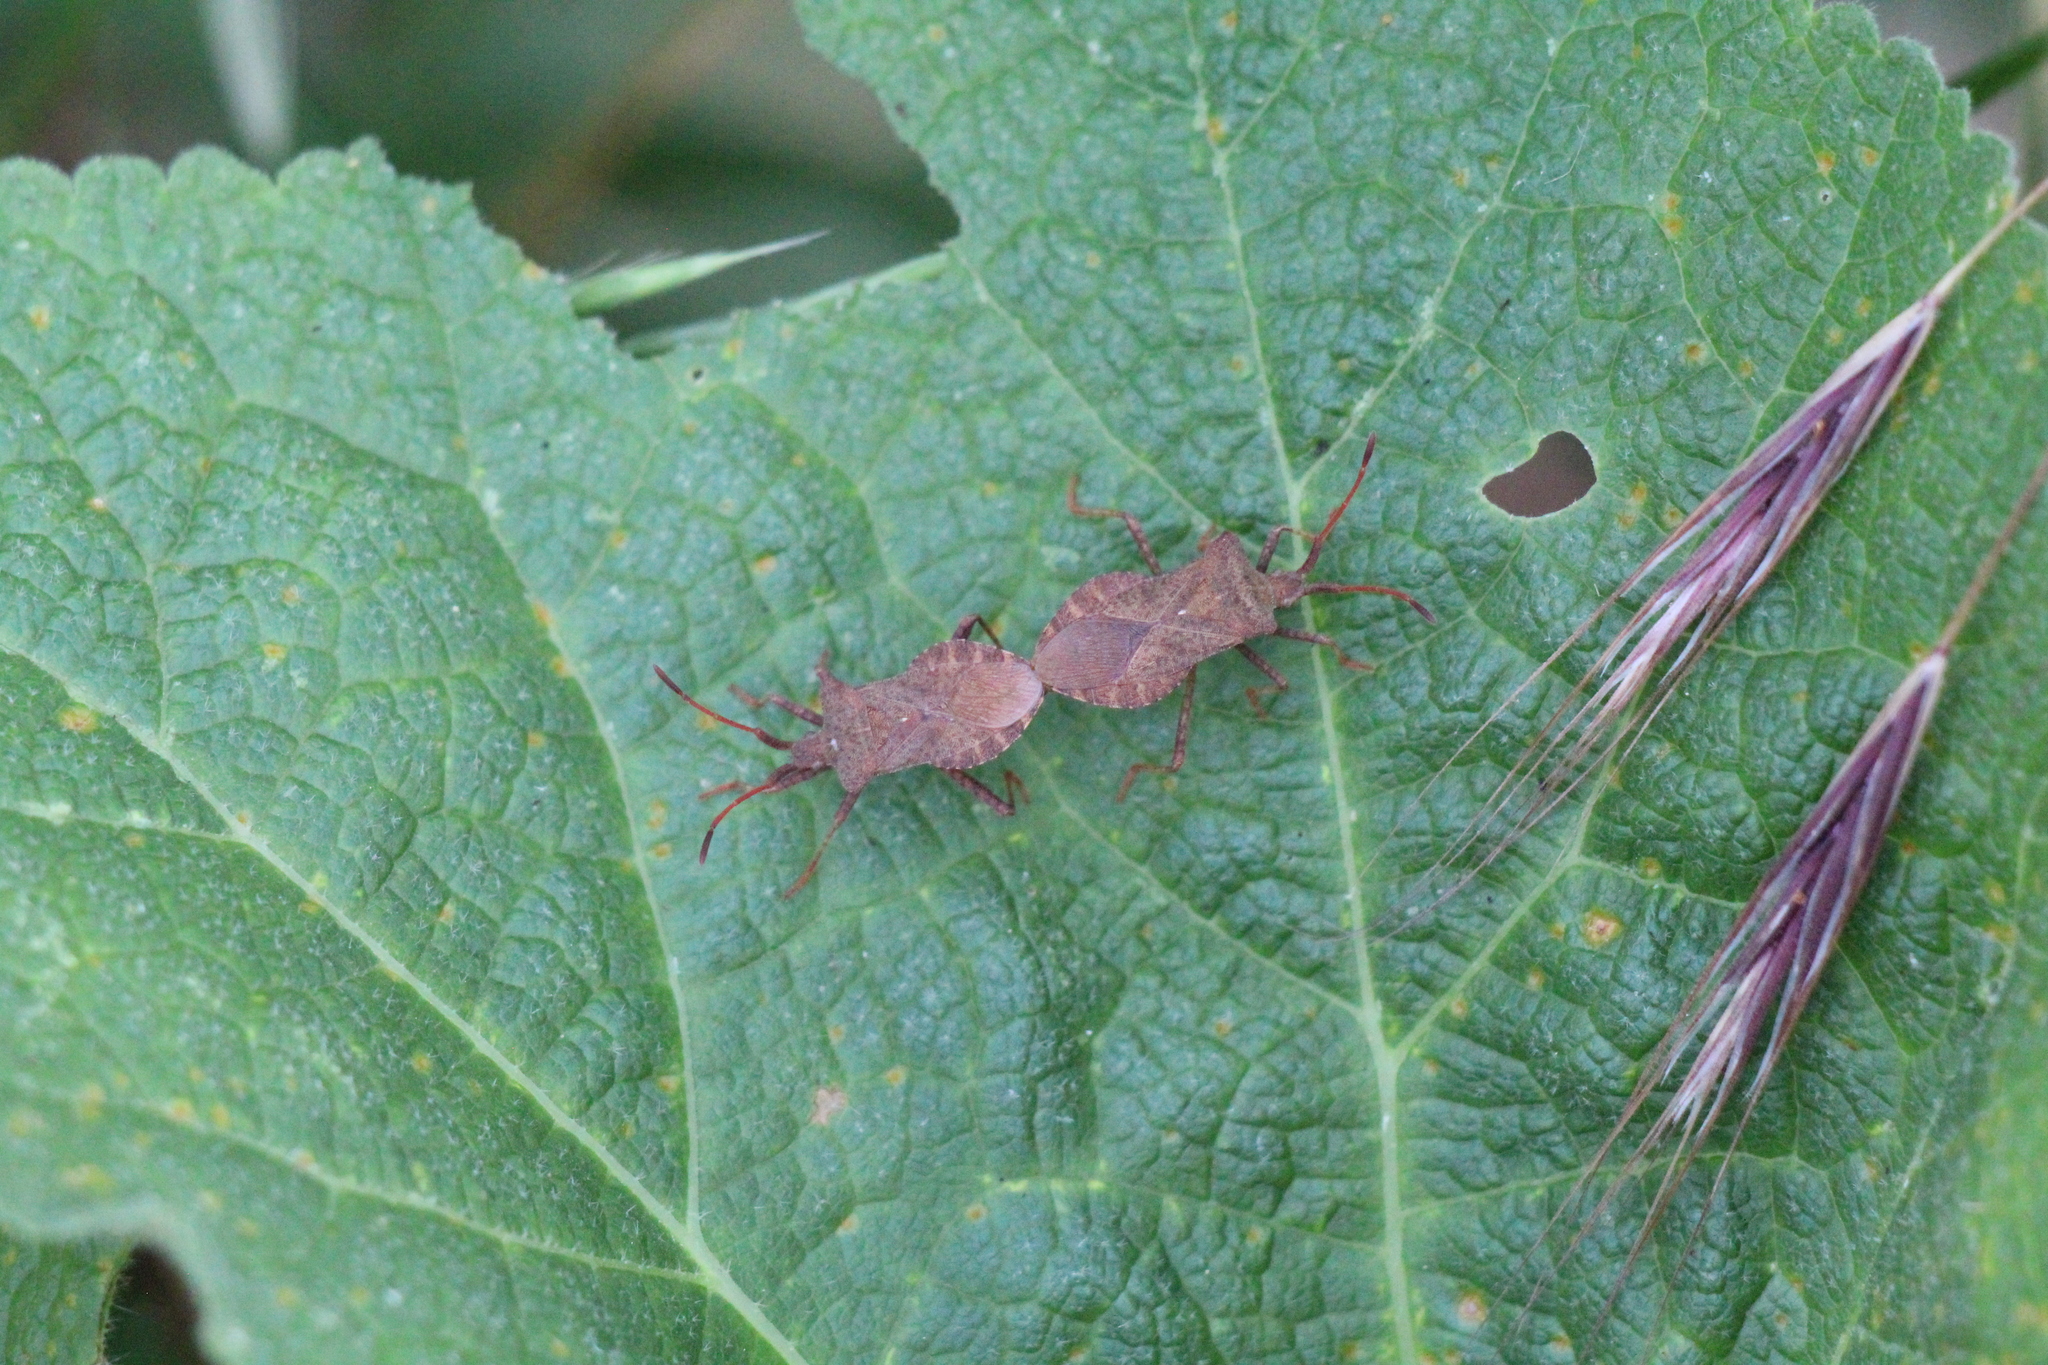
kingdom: Animalia
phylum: Arthropoda
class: Insecta
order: Hemiptera
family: Coreidae
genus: Coreus
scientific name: Coreus marginatus
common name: Dock bug
